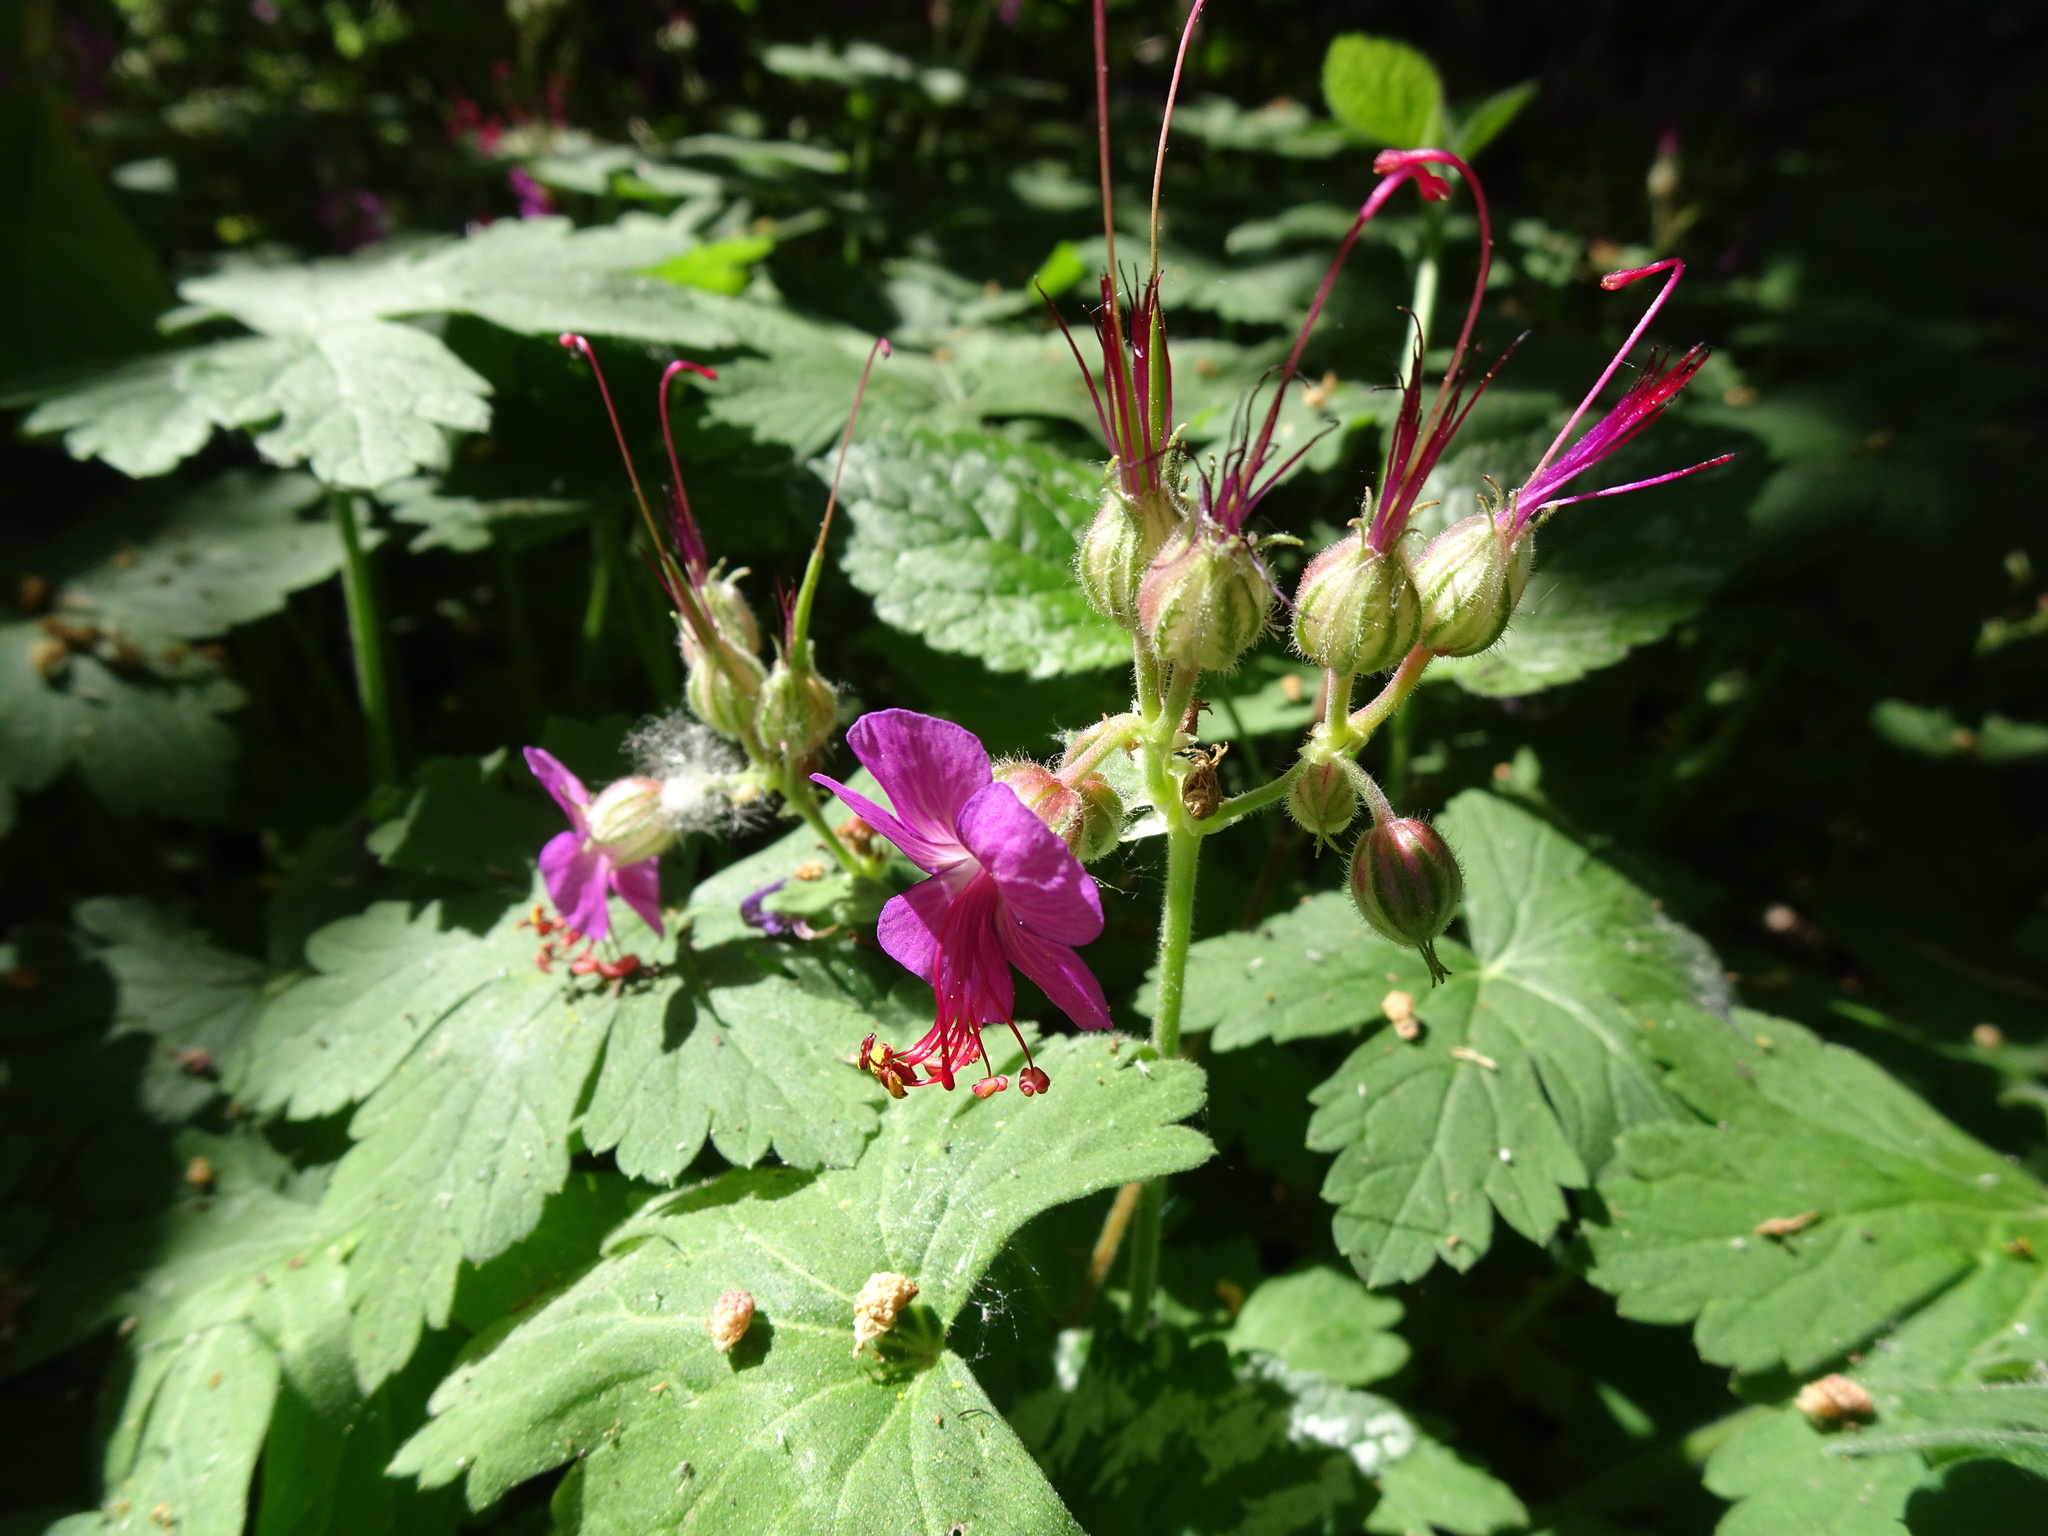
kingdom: Plantae
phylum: Tracheophyta
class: Magnoliopsida
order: Geraniales
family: Geraniaceae
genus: Geranium
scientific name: Geranium macrorrhizum
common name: Rock crane's-bill
